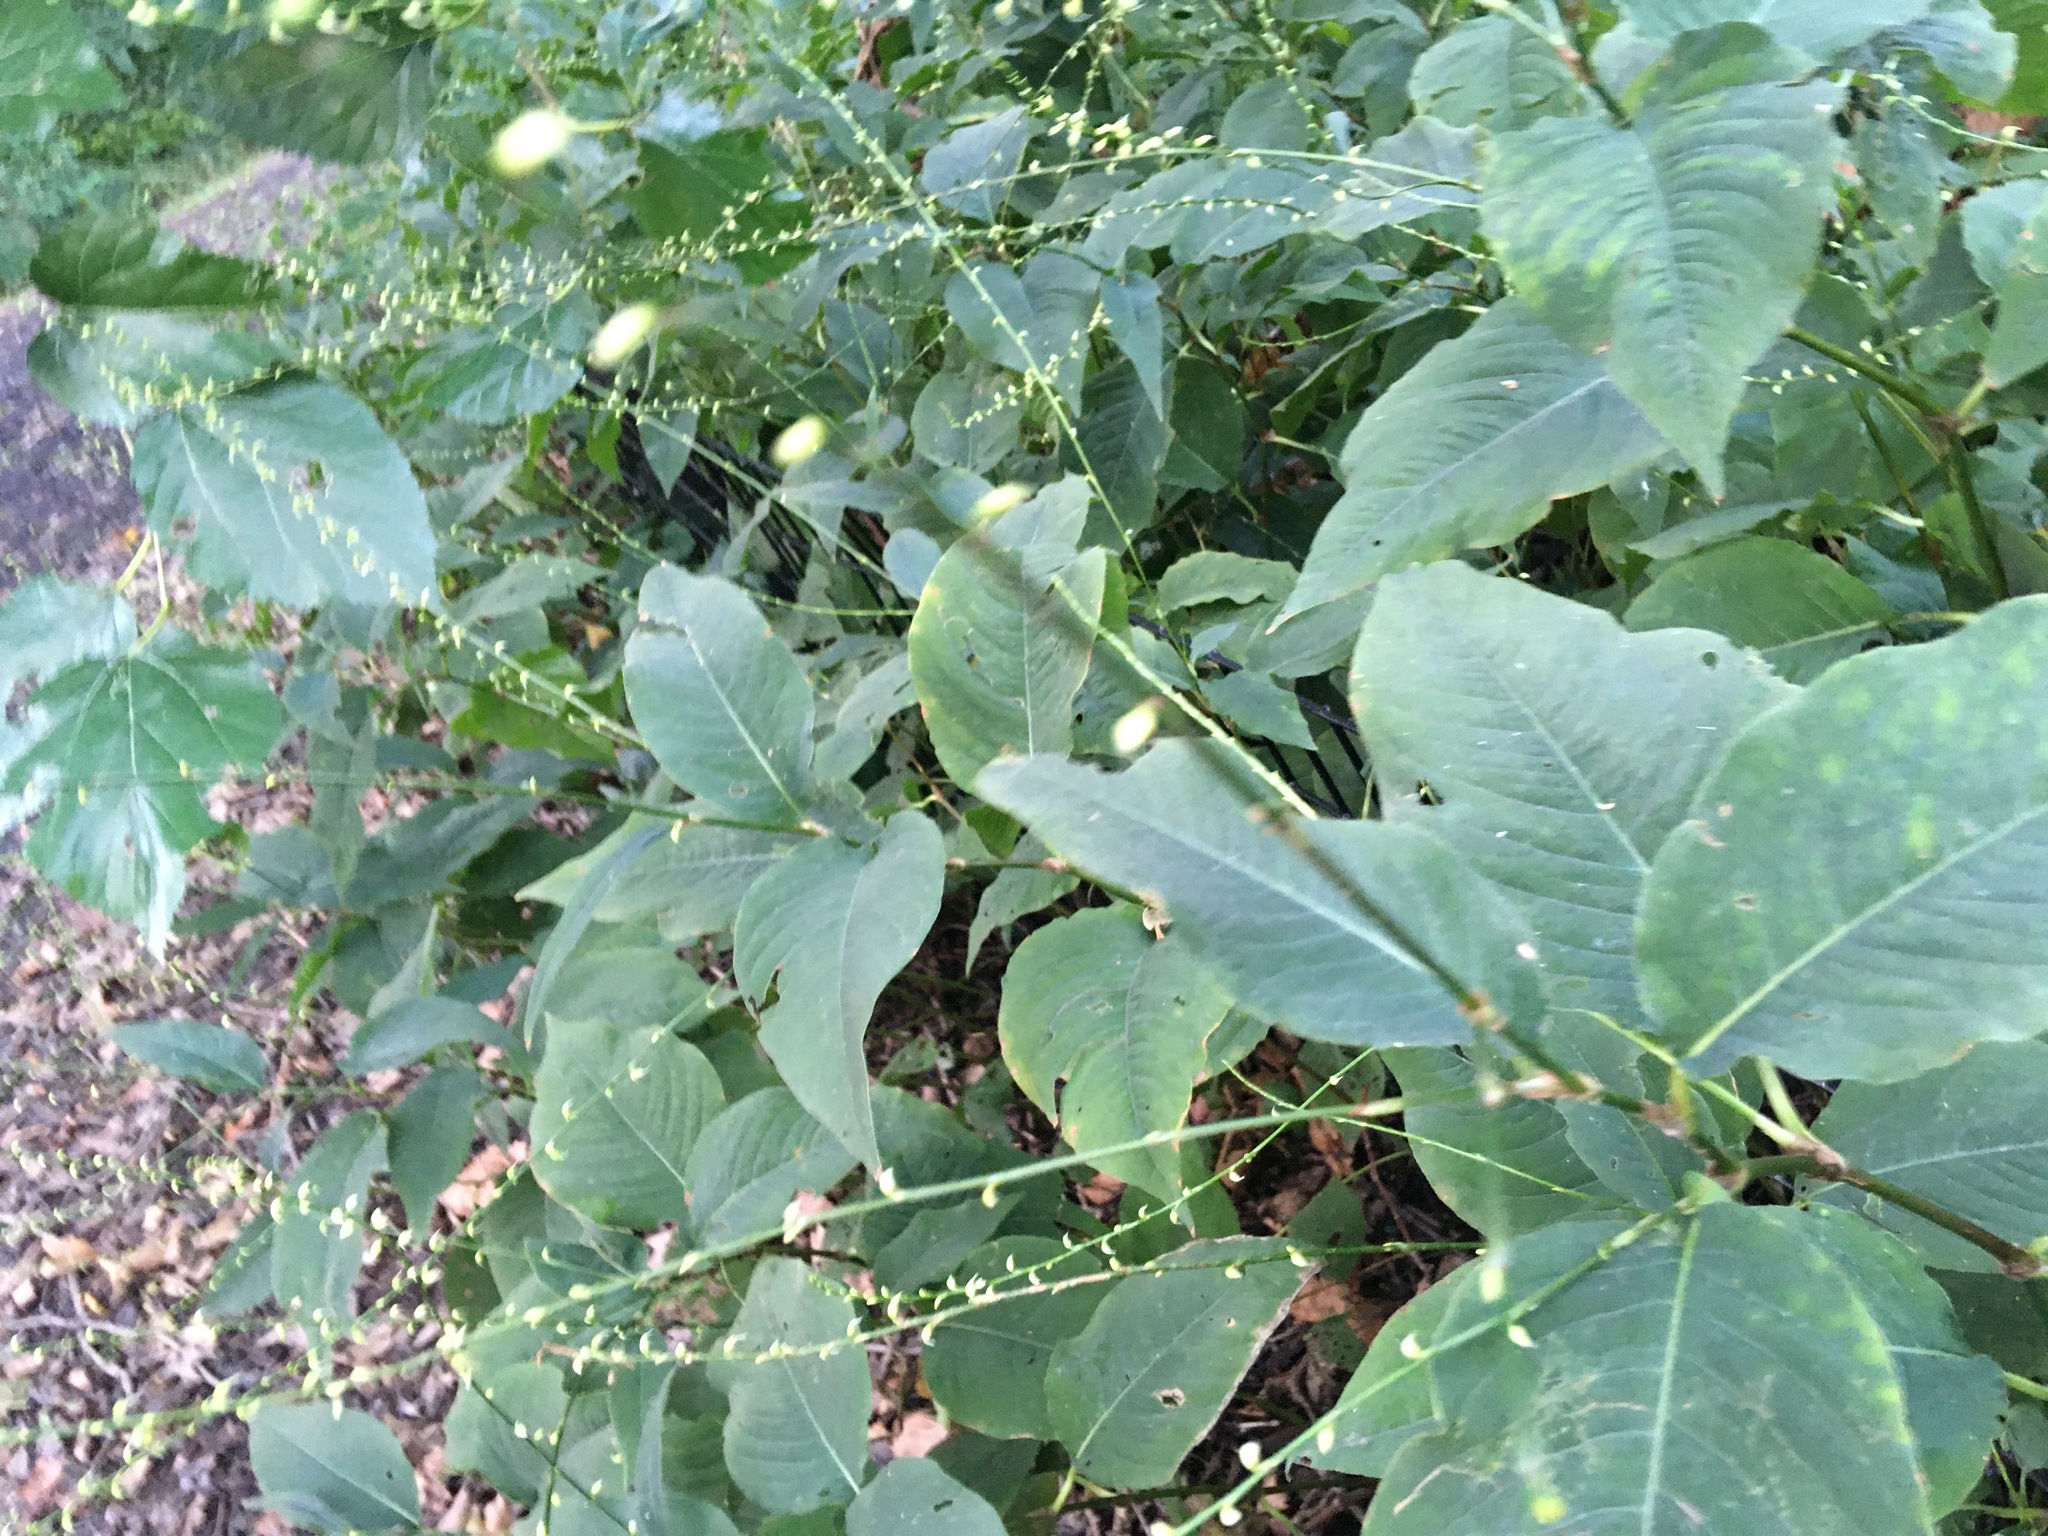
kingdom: Plantae
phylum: Tracheophyta
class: Magnoliopsida
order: Caryophyllales
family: Polygonaceae
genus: Persicaria
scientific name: Persicaria virginiana
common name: Jumpseed
